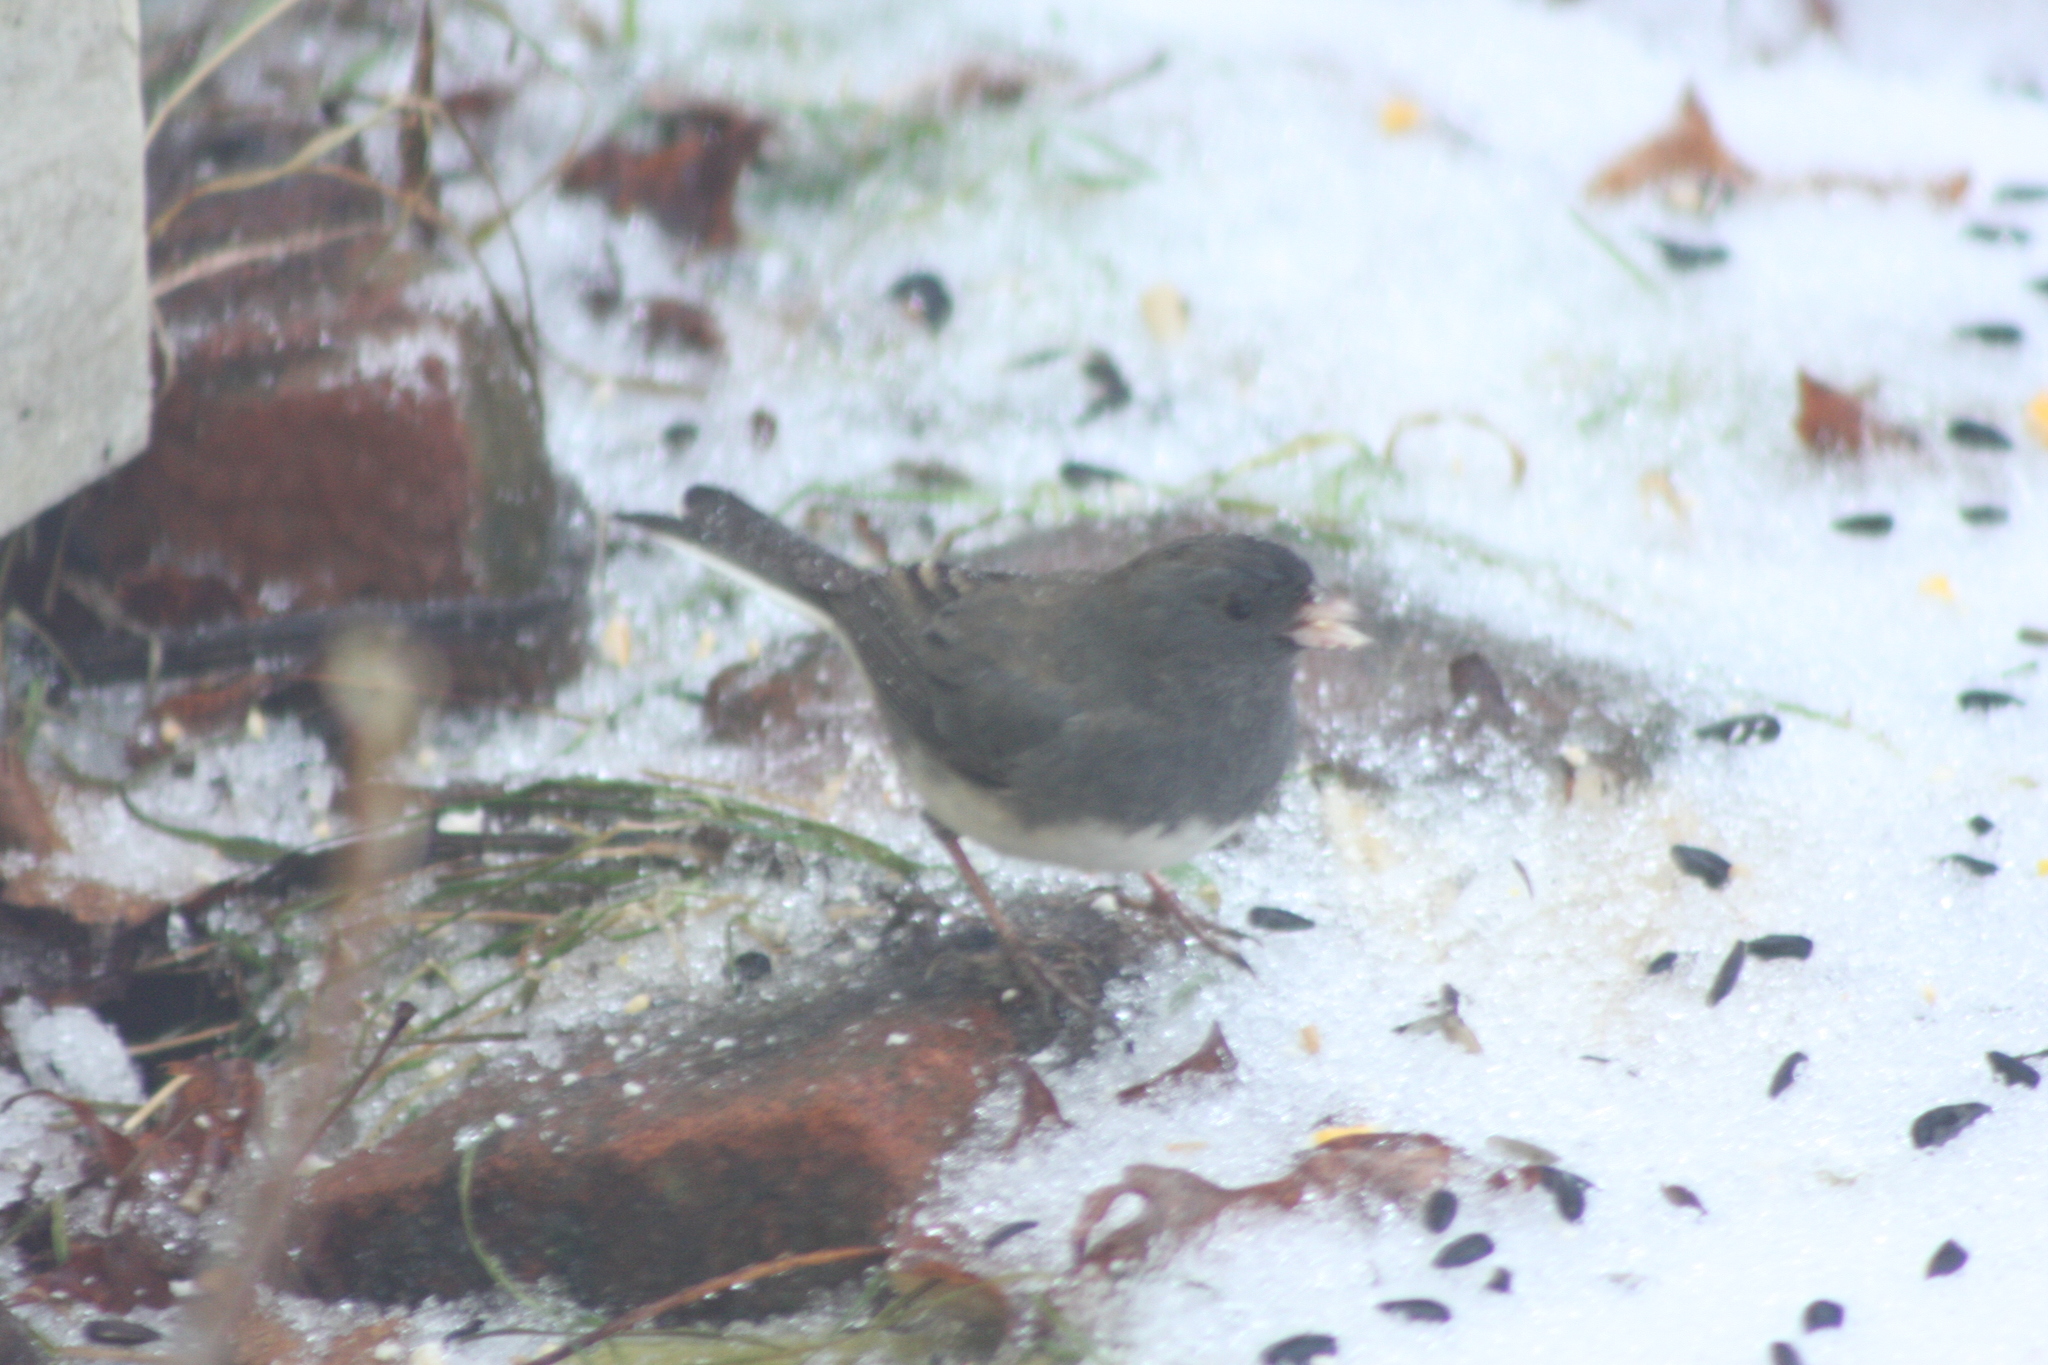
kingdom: Animalia
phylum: Chordata
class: Aves
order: Passeriformes
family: Passerellidae
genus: Junco
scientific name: Junco hyemalis
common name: Dark-eyed junco
